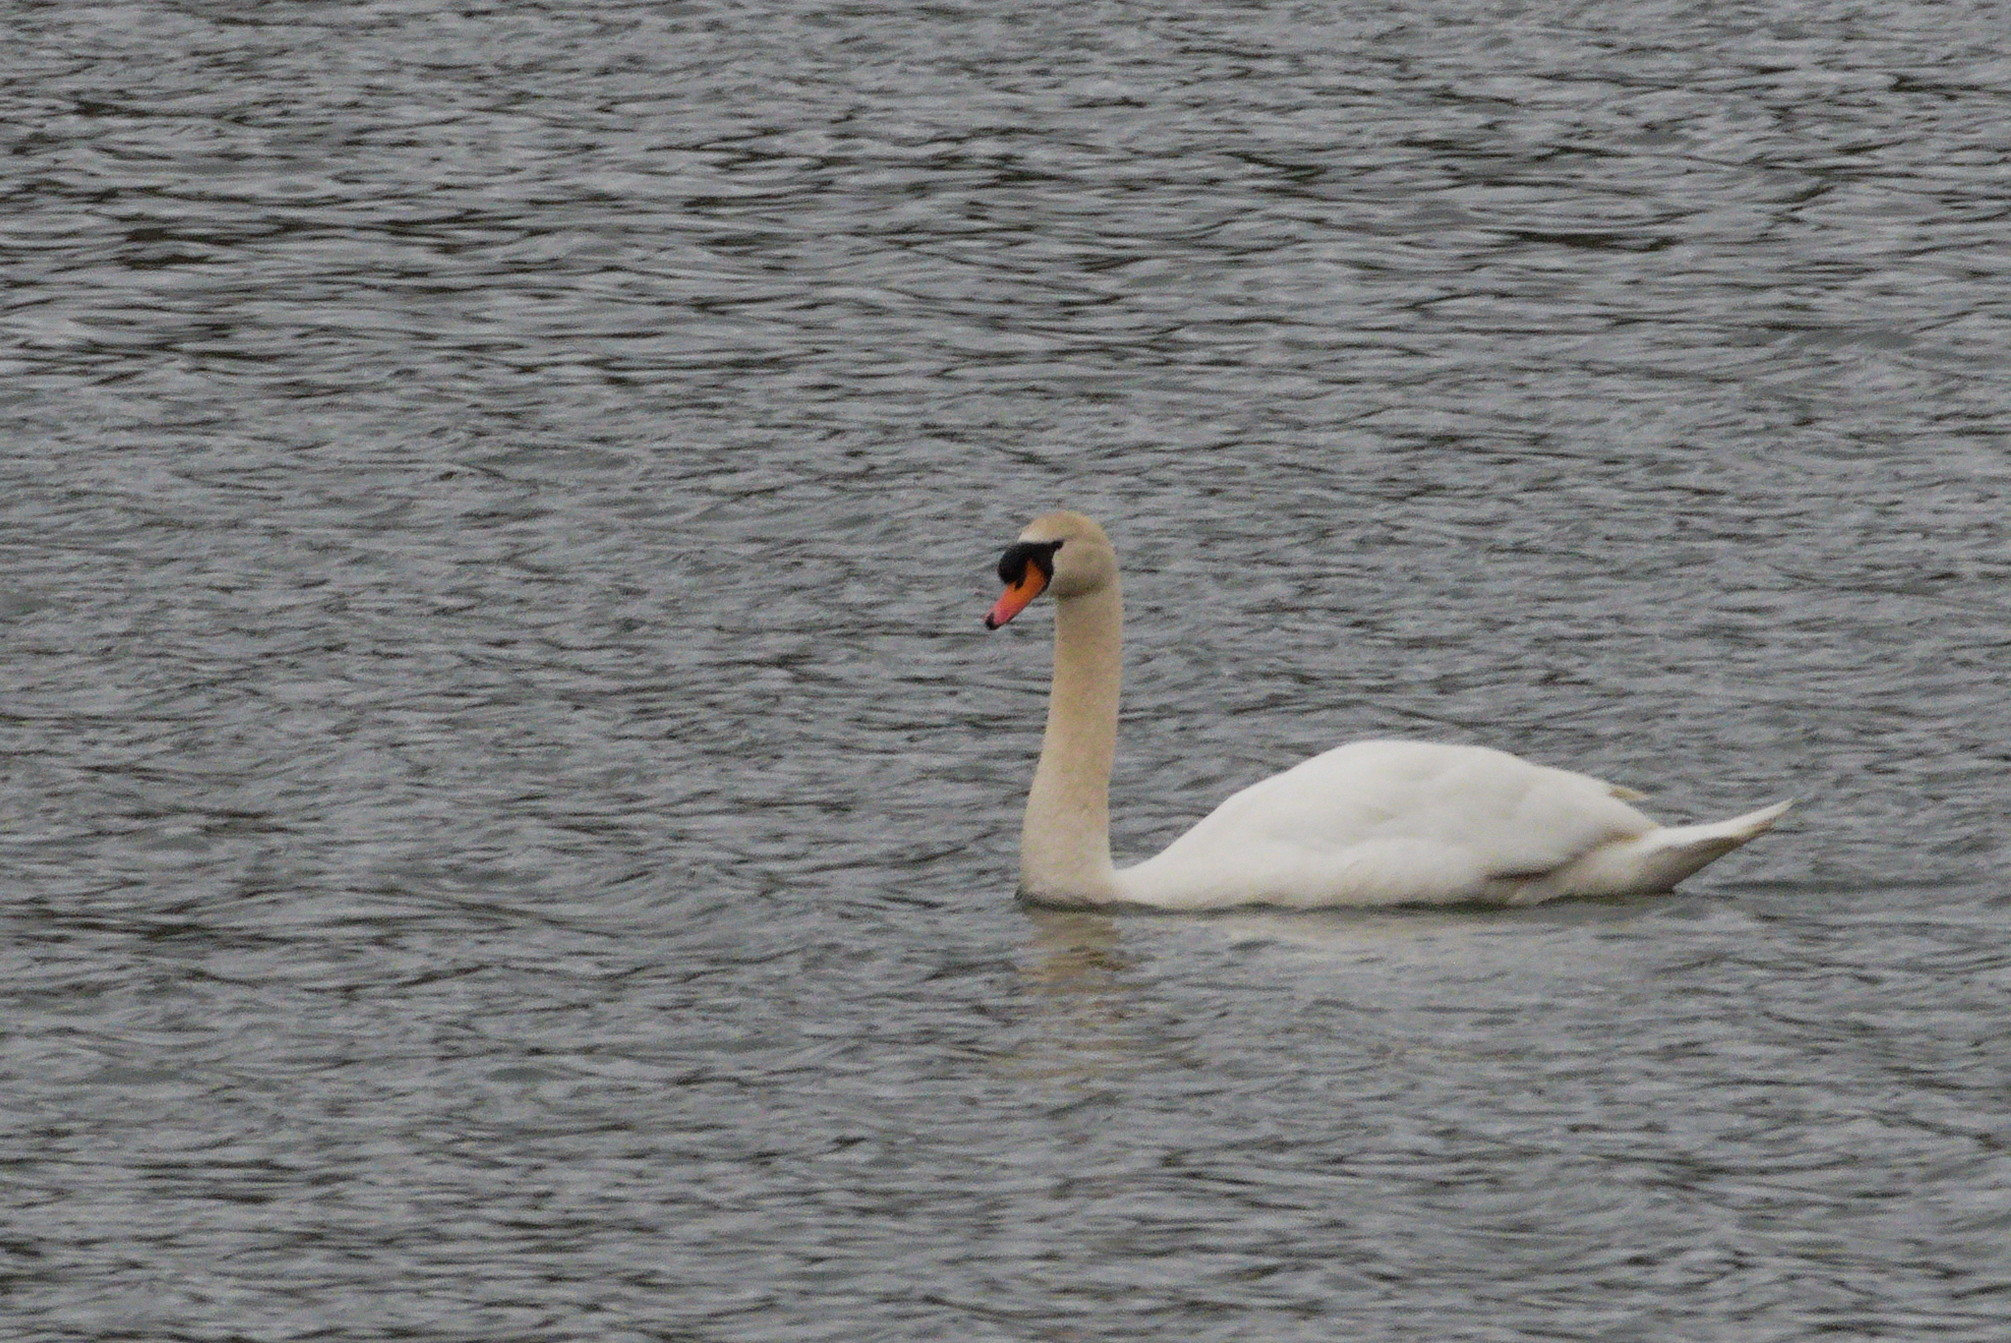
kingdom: Animalia
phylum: Chordata
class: Aves
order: Anseriformes
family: Anatidae
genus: Cygnus
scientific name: Cygnus olor
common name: Mute swan
